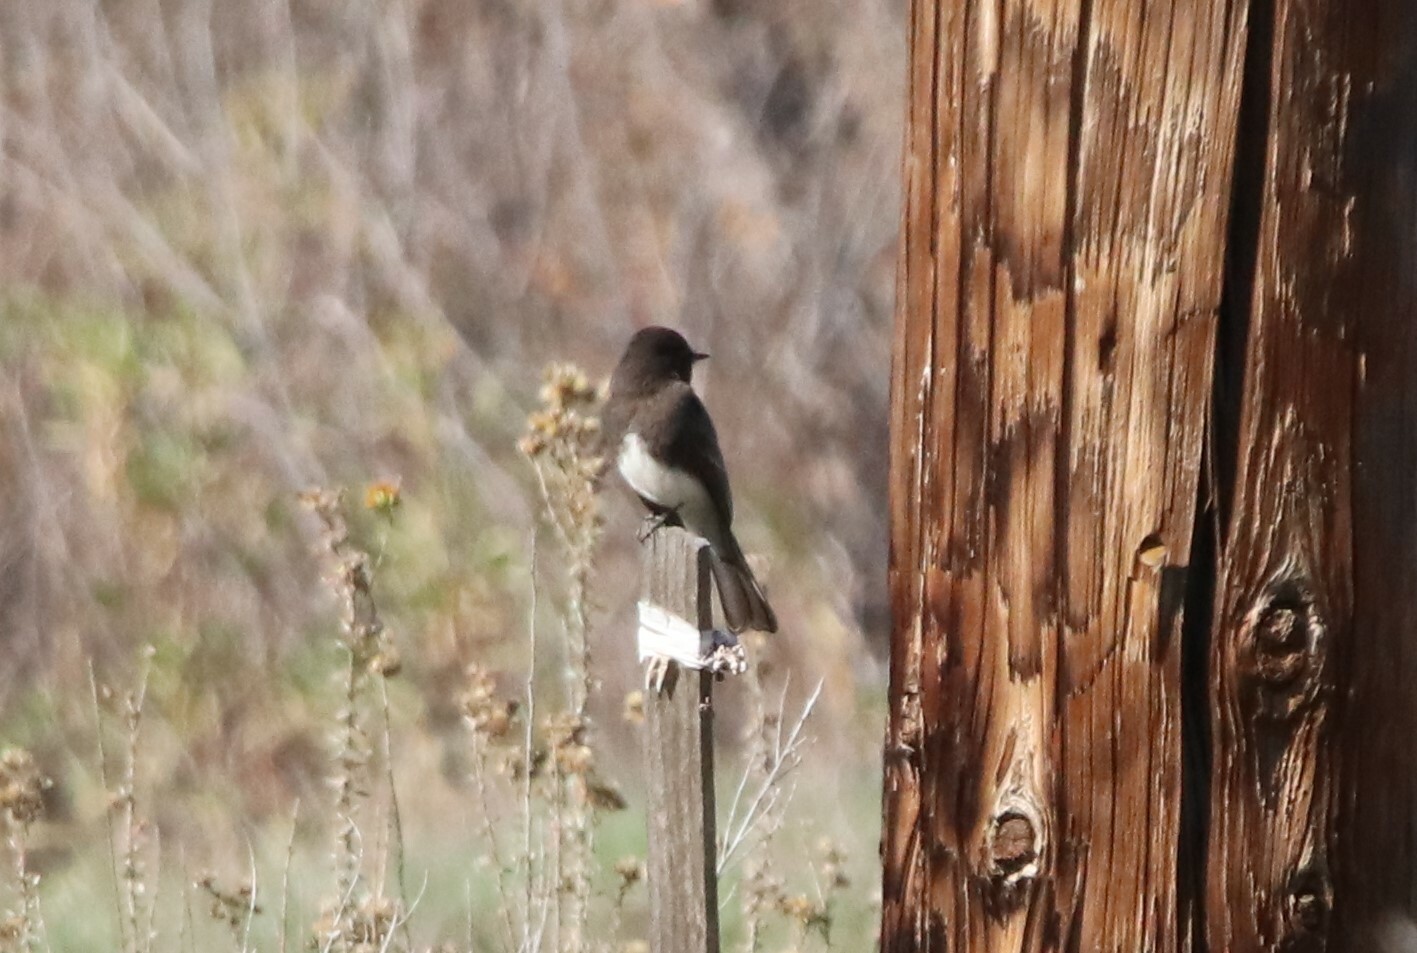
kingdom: Animalia
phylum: Chordata
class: Aves
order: Passeriformes
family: Tyrannidae
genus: Sayornis
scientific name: Sayornis nigricans
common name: Black phoebe
